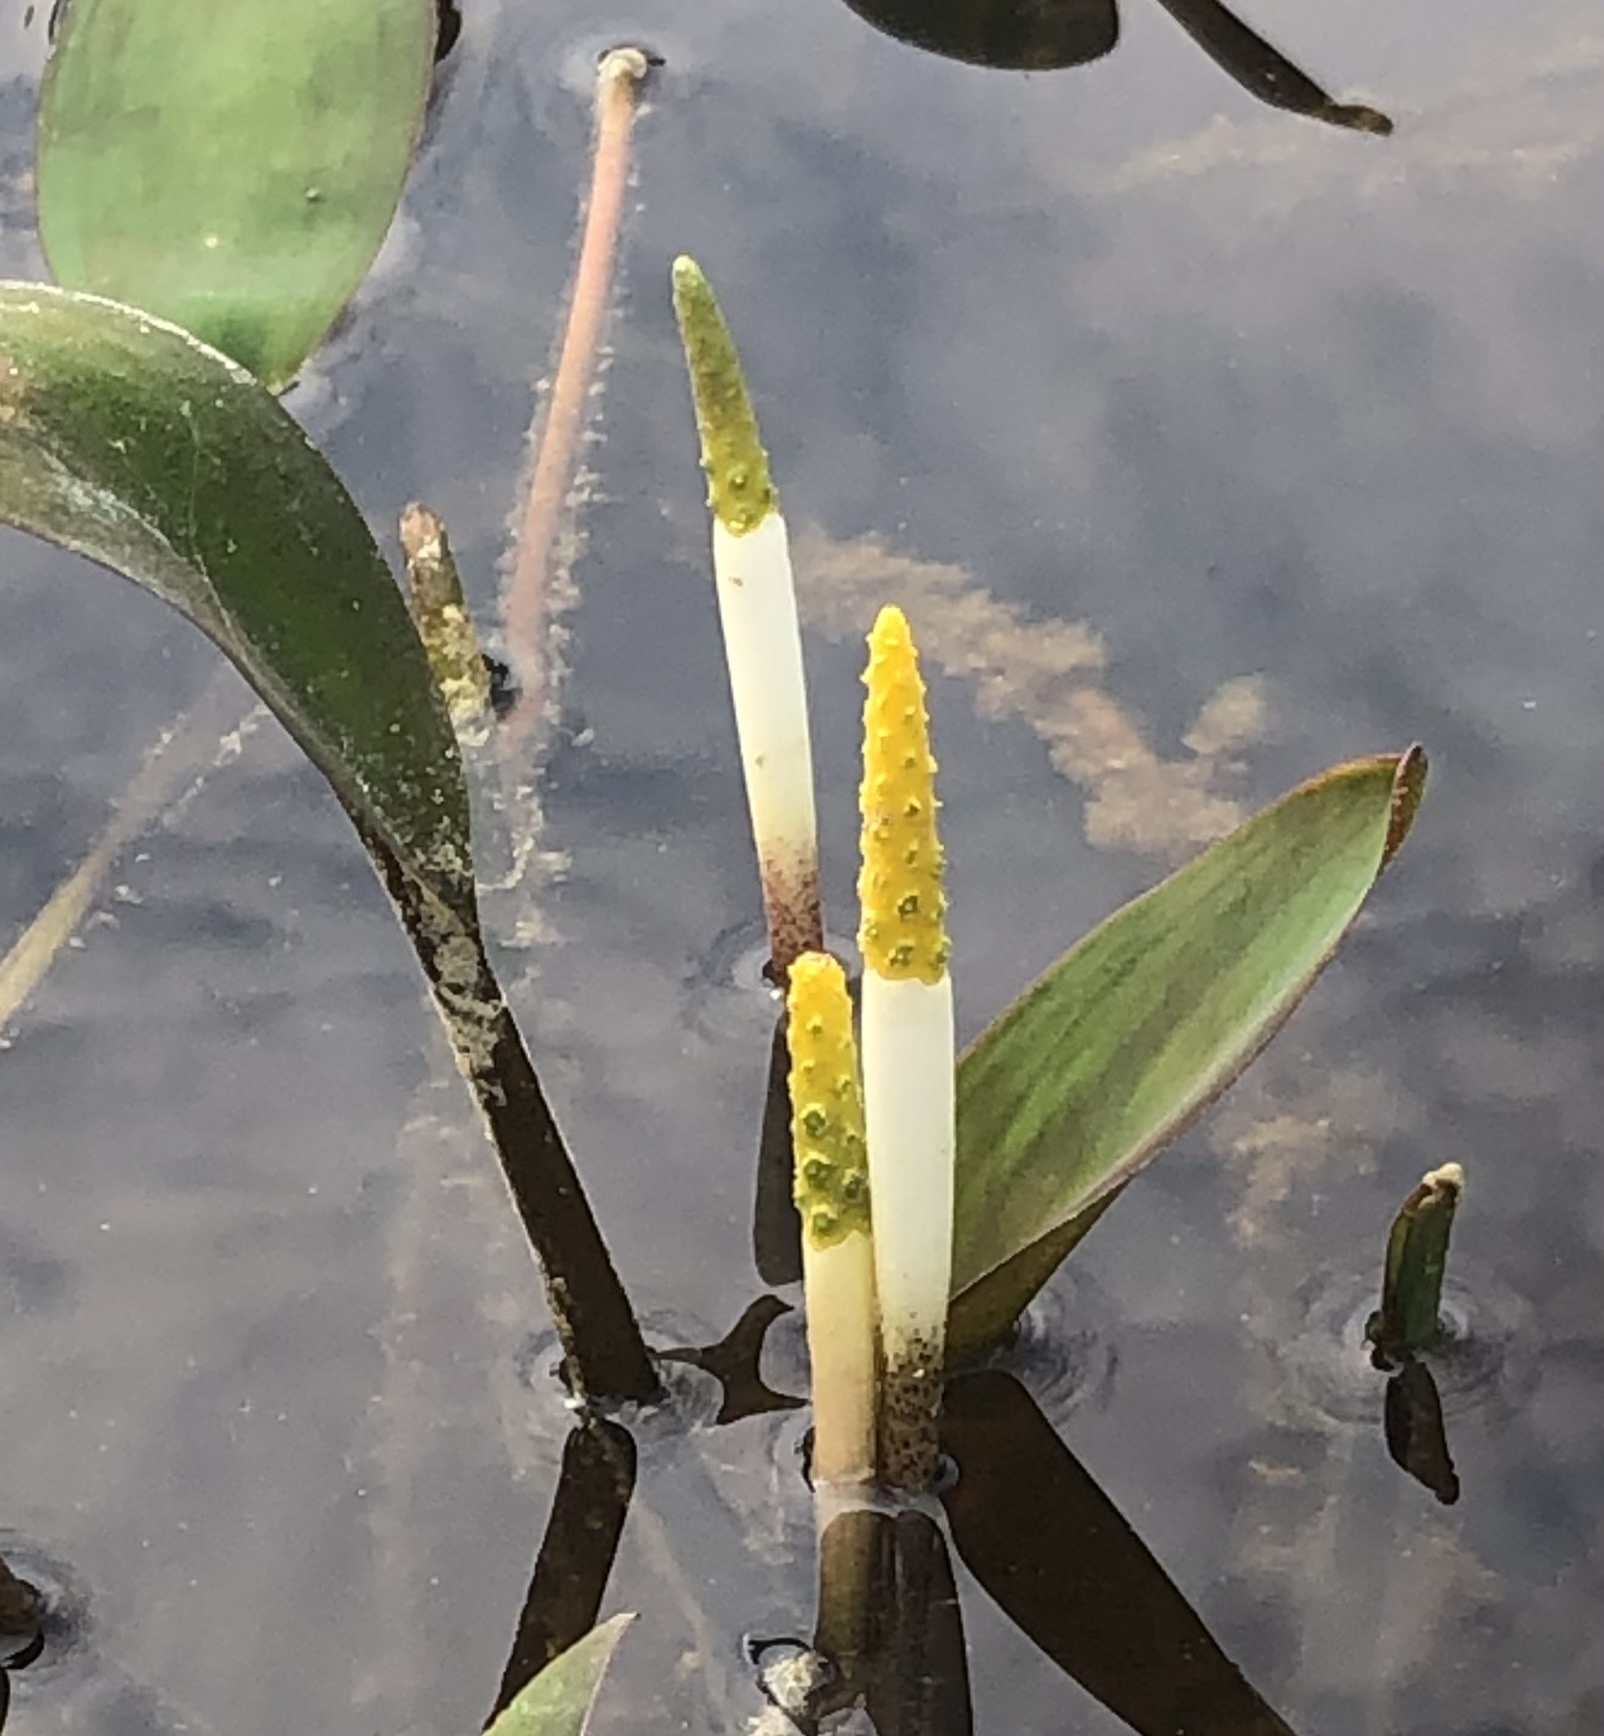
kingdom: Plantae
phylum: Tracheophyta
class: Liliopsida
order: Alismatales
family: Araceae
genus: Orontium
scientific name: Orontium aquaticum
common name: Golden-club
